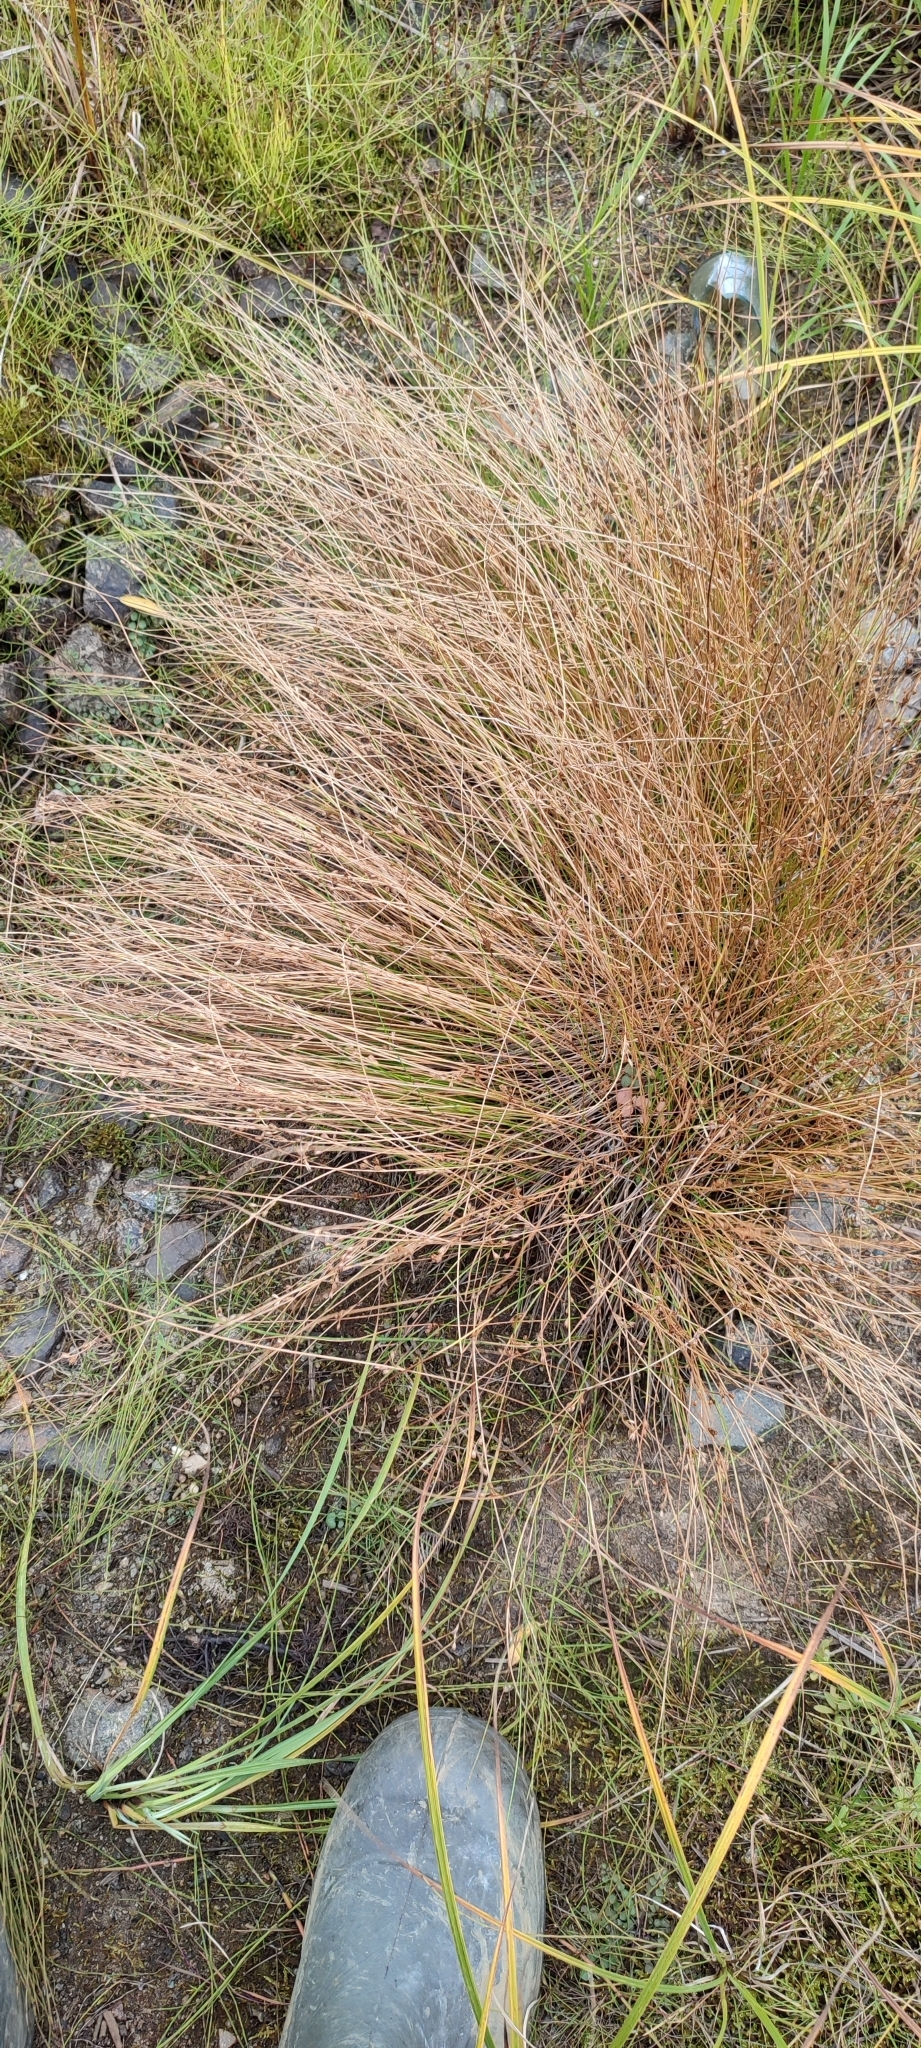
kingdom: Plantae
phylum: Tracheophyta
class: Liliopsida
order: Poales
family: Juncaceae
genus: Juncus
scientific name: Juncus bufonius
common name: Toad rush
